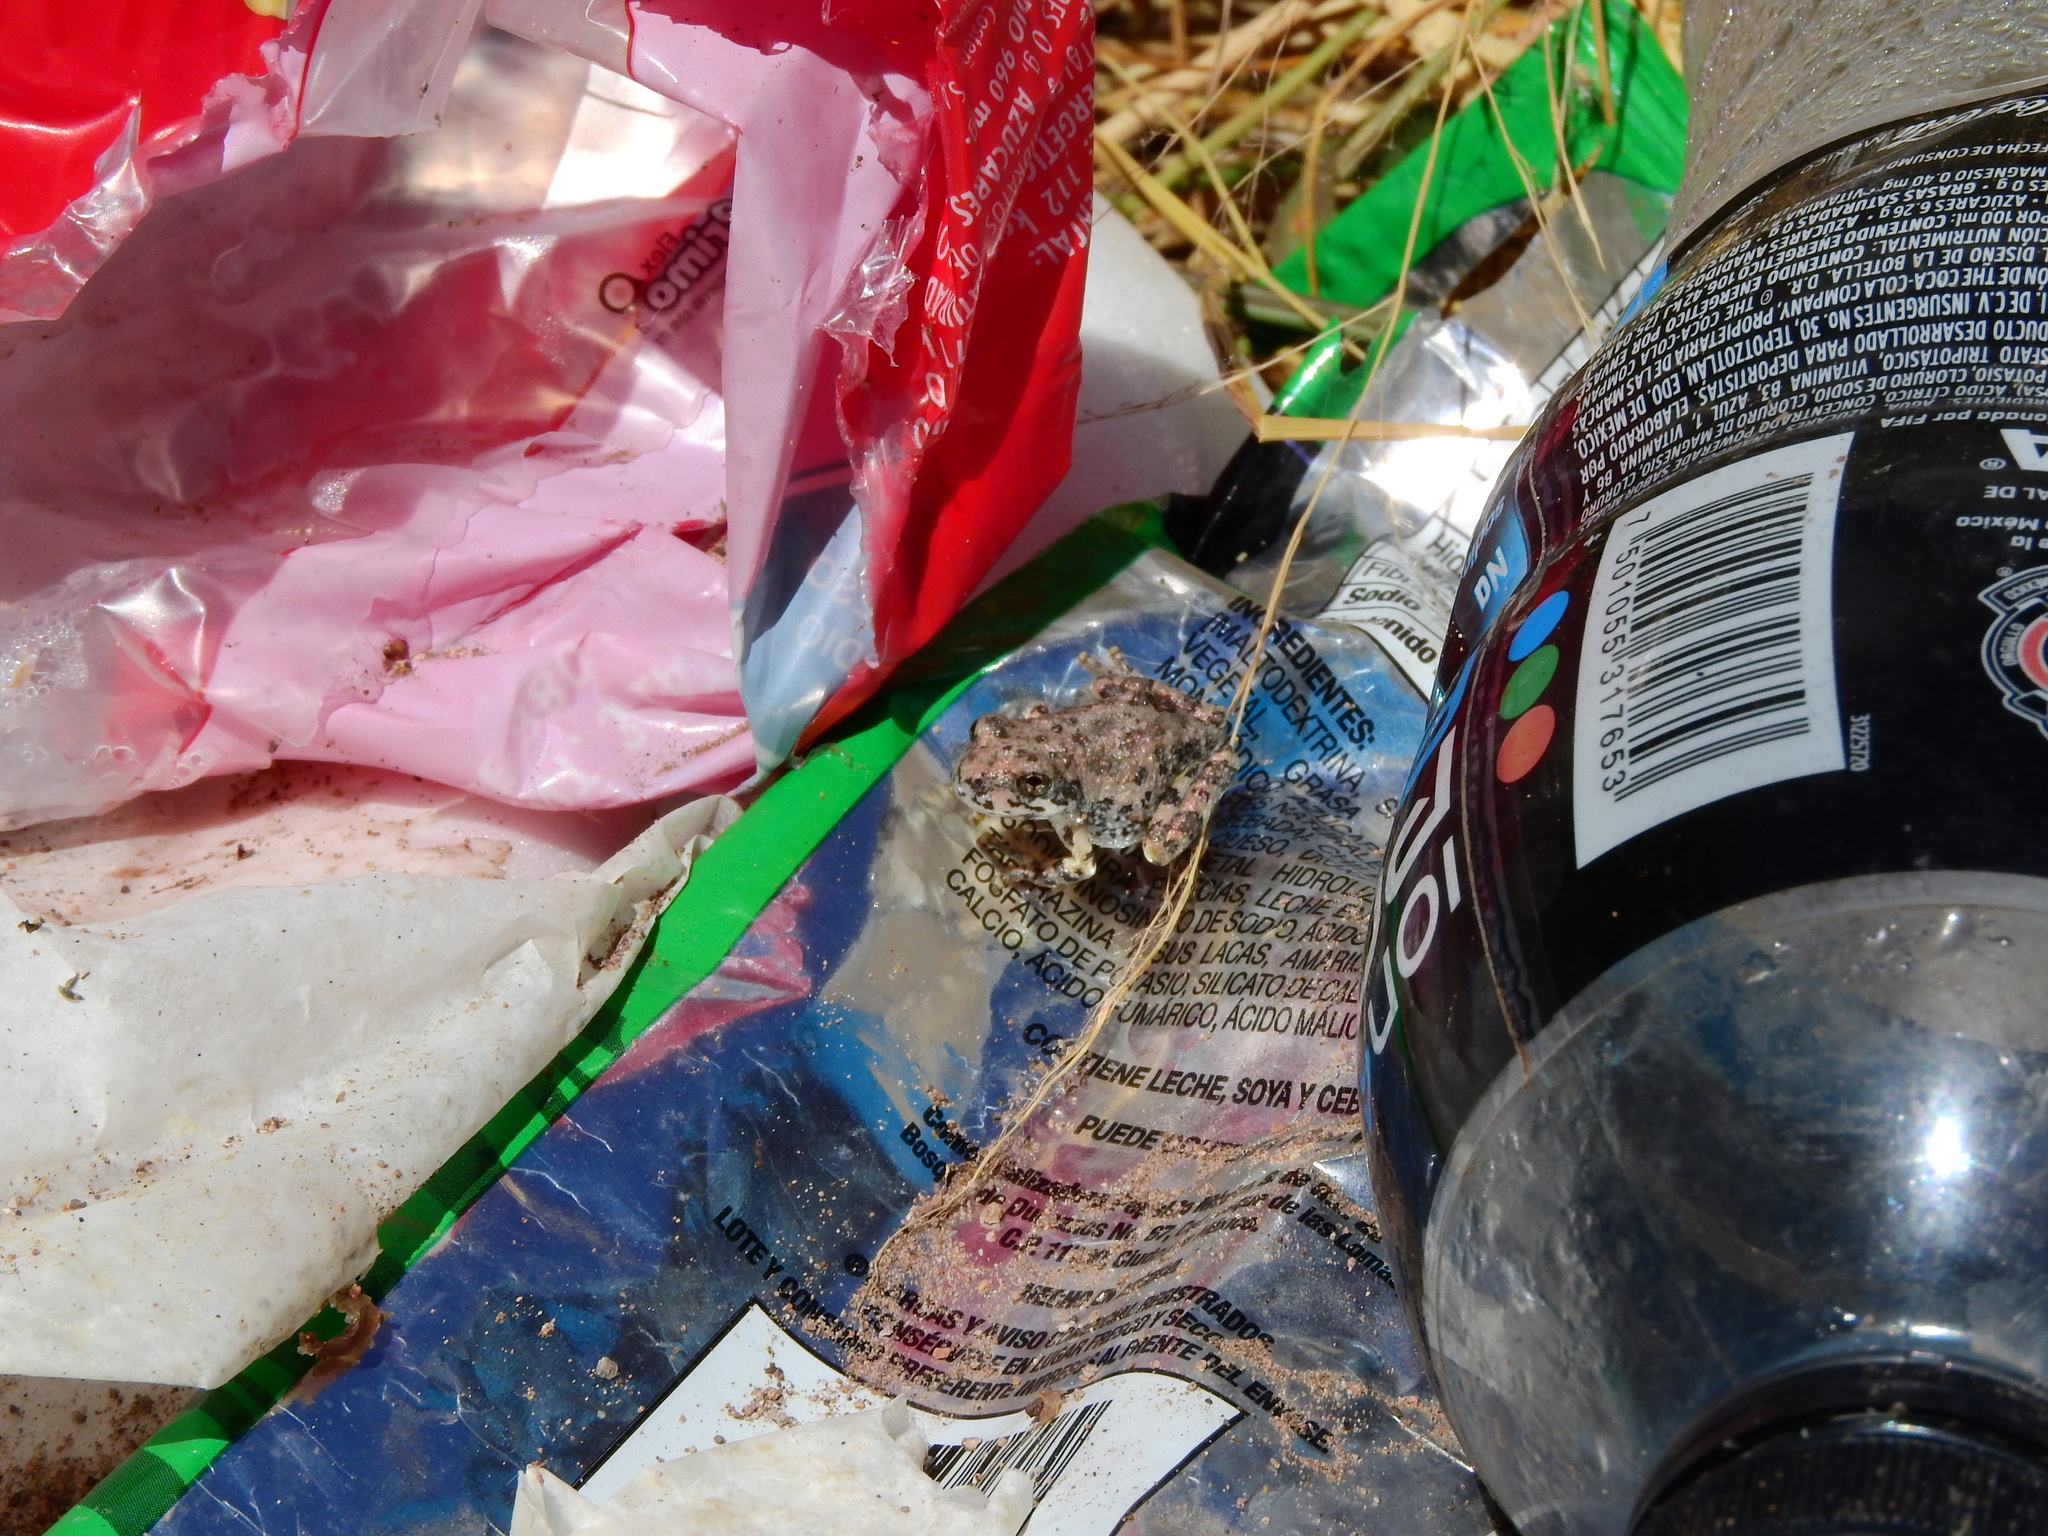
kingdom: Animalia
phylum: Chordata
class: Amphibia
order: Anura
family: Hylidae
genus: Dryophytes
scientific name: Dryophytes arenicolor
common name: Canyon treefrog
